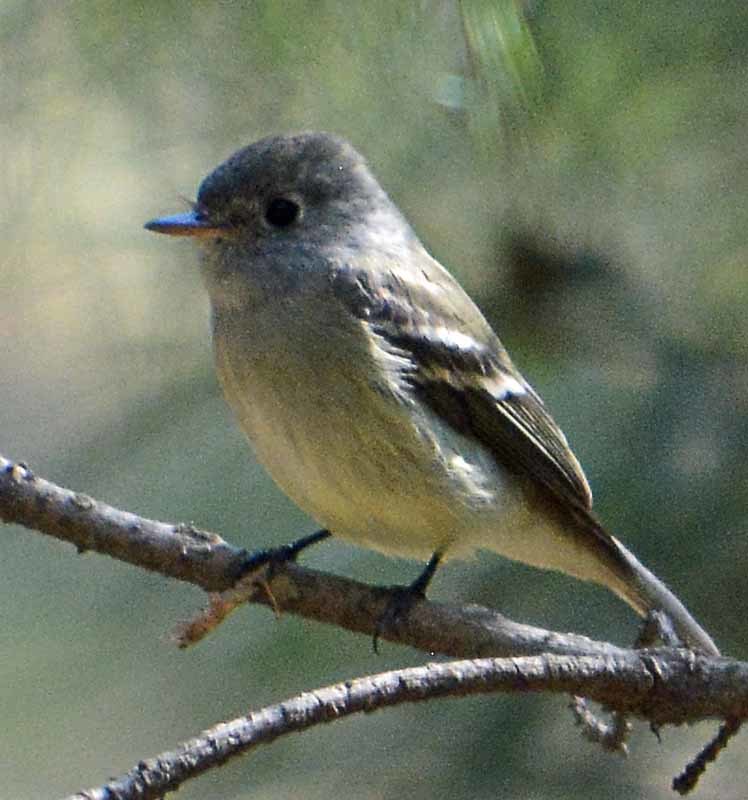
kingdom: Animalia
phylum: Chordata
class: Aves
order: Passeriformes
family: Tyrannidae
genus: Empidonax
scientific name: Empidonax hammondii
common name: Hammond's flycatcher
